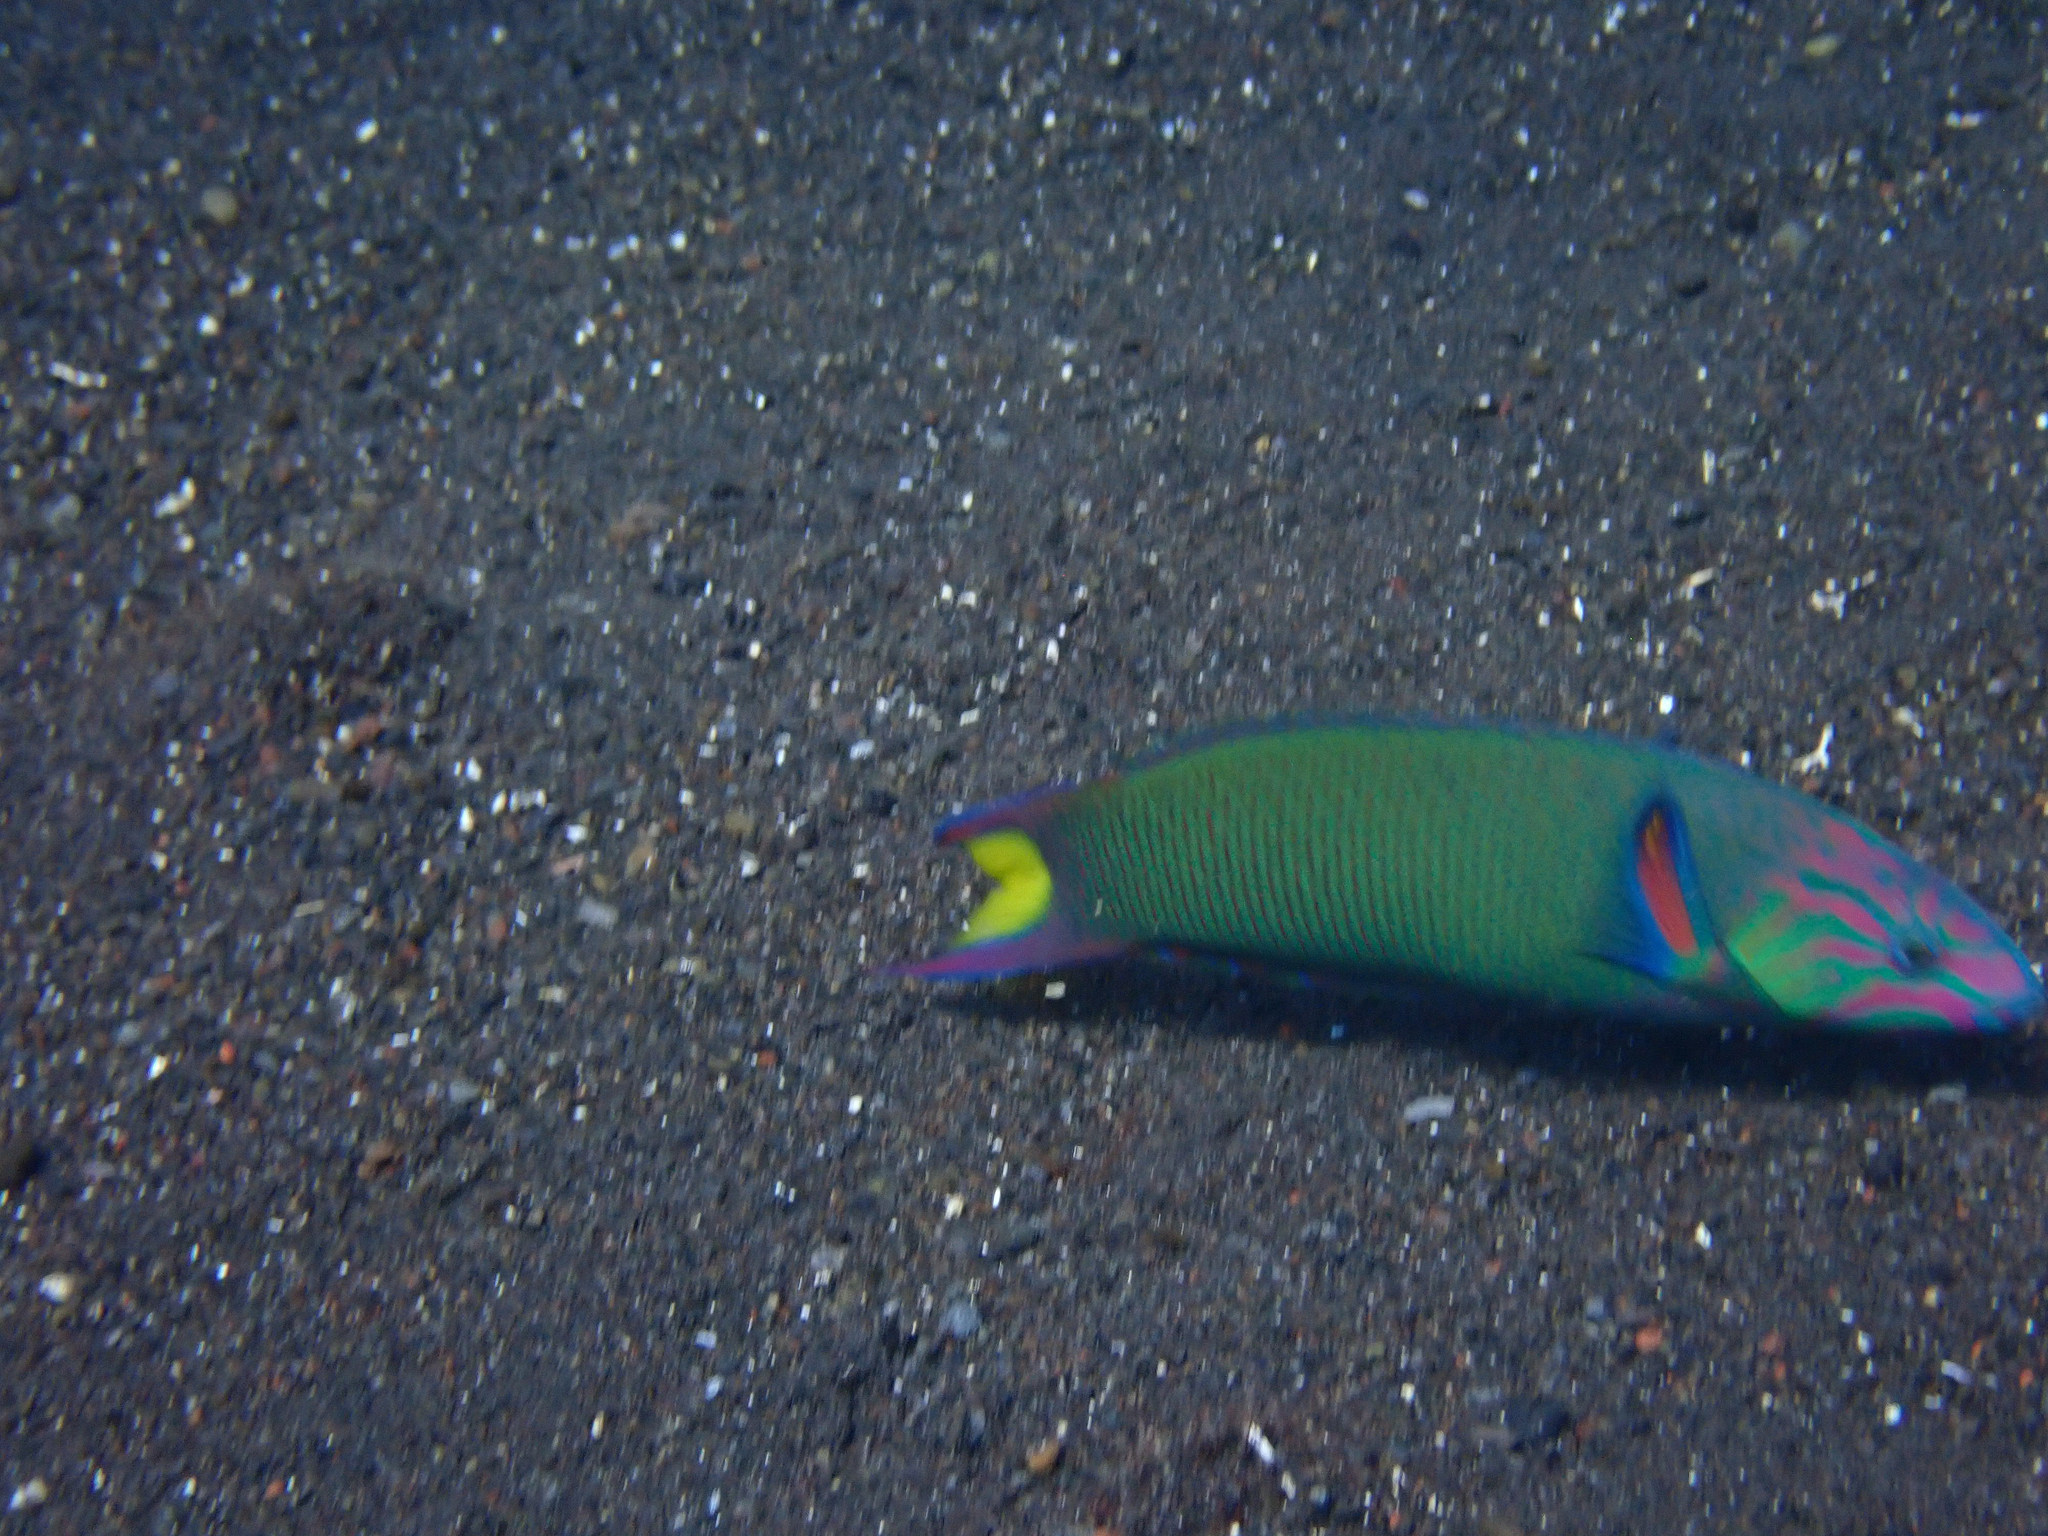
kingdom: Animalia
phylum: Chordata
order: Perciformes
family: Labridae
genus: Thalassoma
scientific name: Thalassoma lunare
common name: Blue wrasse
